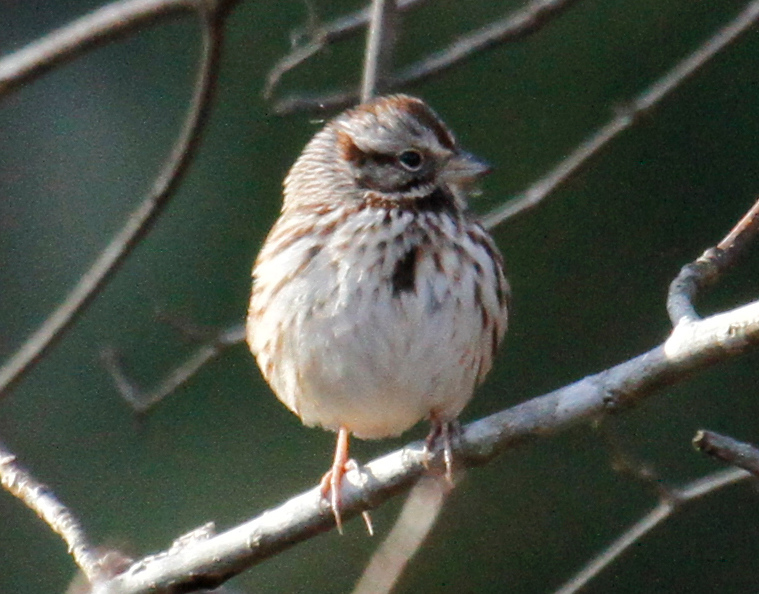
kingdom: Animalia
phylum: Chordata
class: Aves
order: Passeriformes
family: Passerellidae
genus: Melospiza
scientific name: Melospiza melodia
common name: Song sparrow
